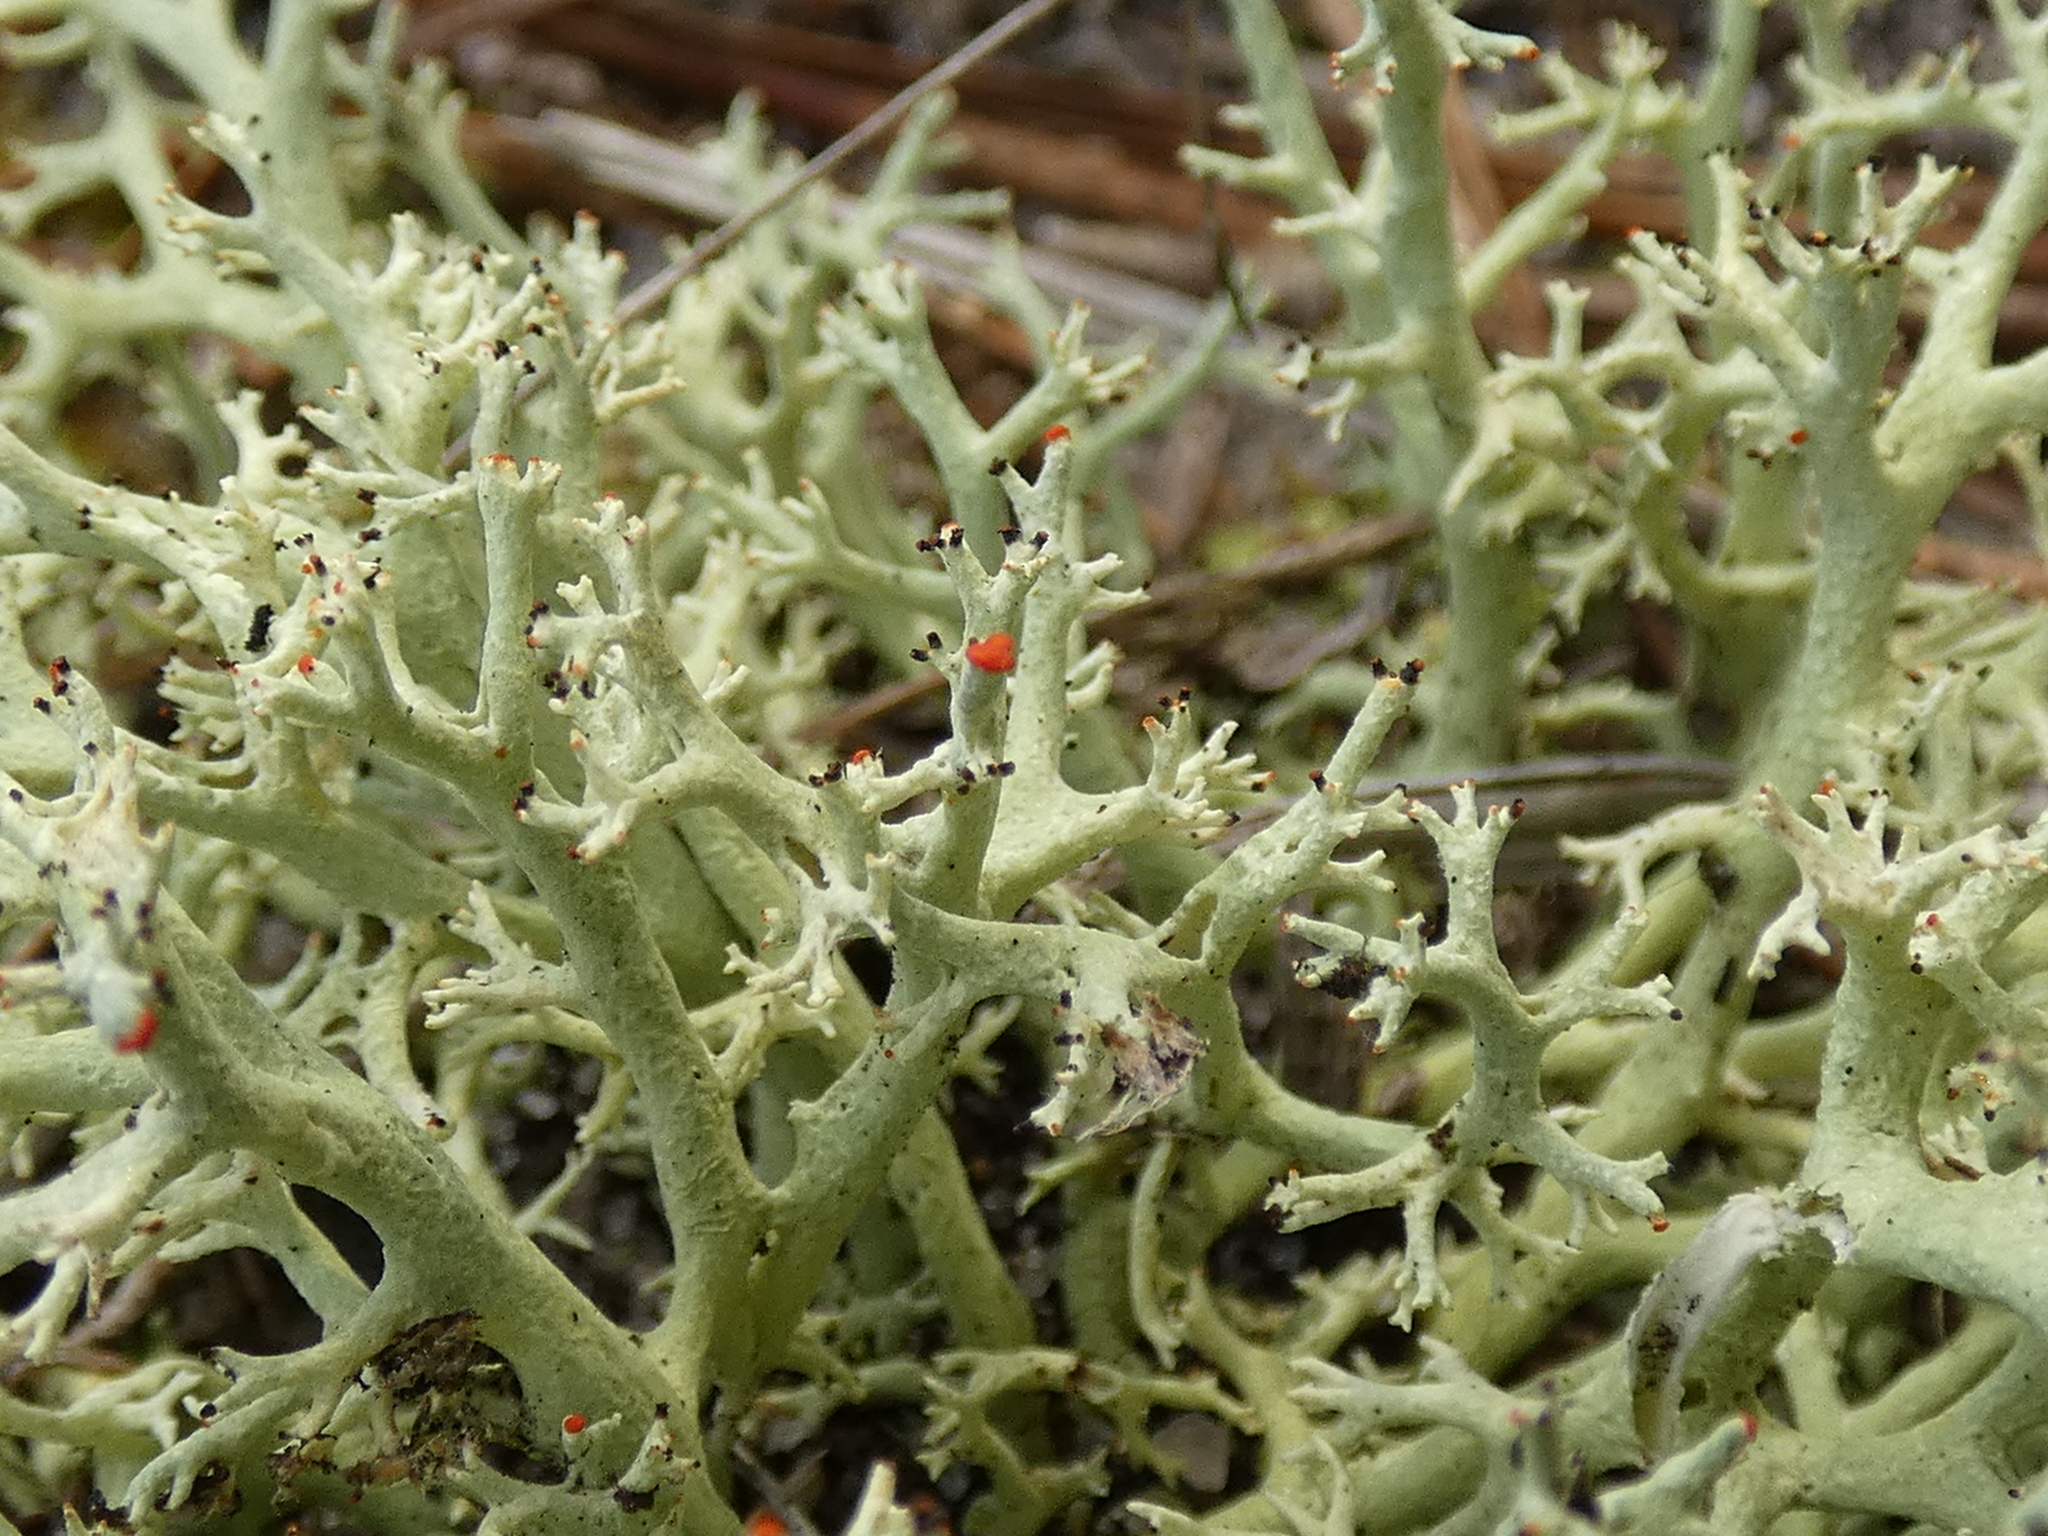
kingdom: Fungi
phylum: Ascomycota
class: Lecanoromycetes
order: Lecanorales
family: Cladoniaceae
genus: Cladonia
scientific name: Cladonia leporina
